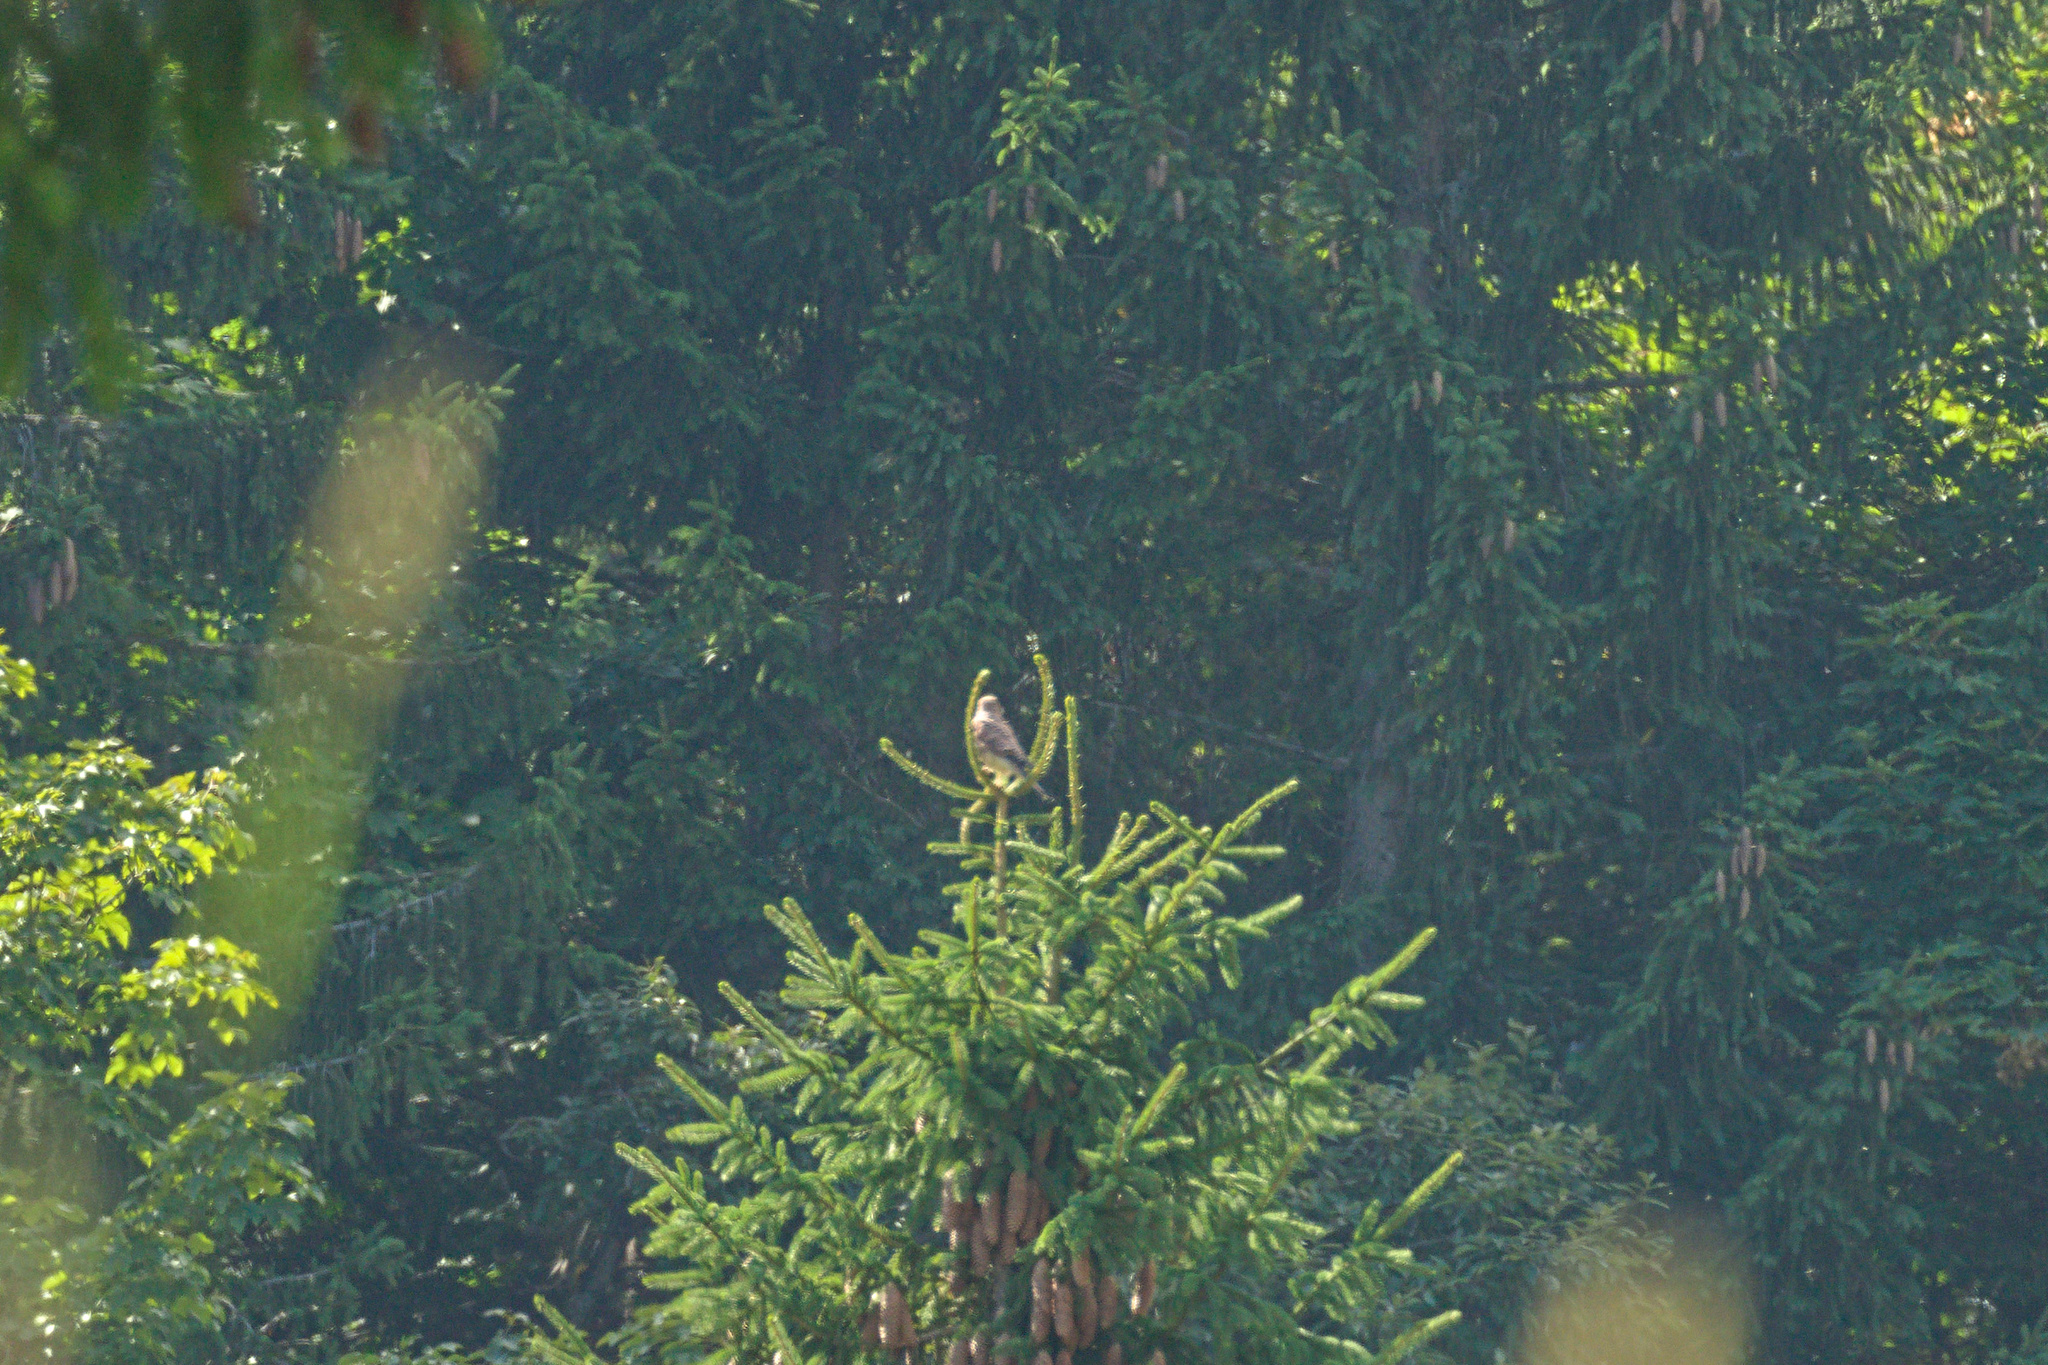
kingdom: Animalia
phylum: Chordata
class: Aves
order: Falconiformes
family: Falconidae
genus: Falco
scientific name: Falco tinnunculus
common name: Common kestrel
